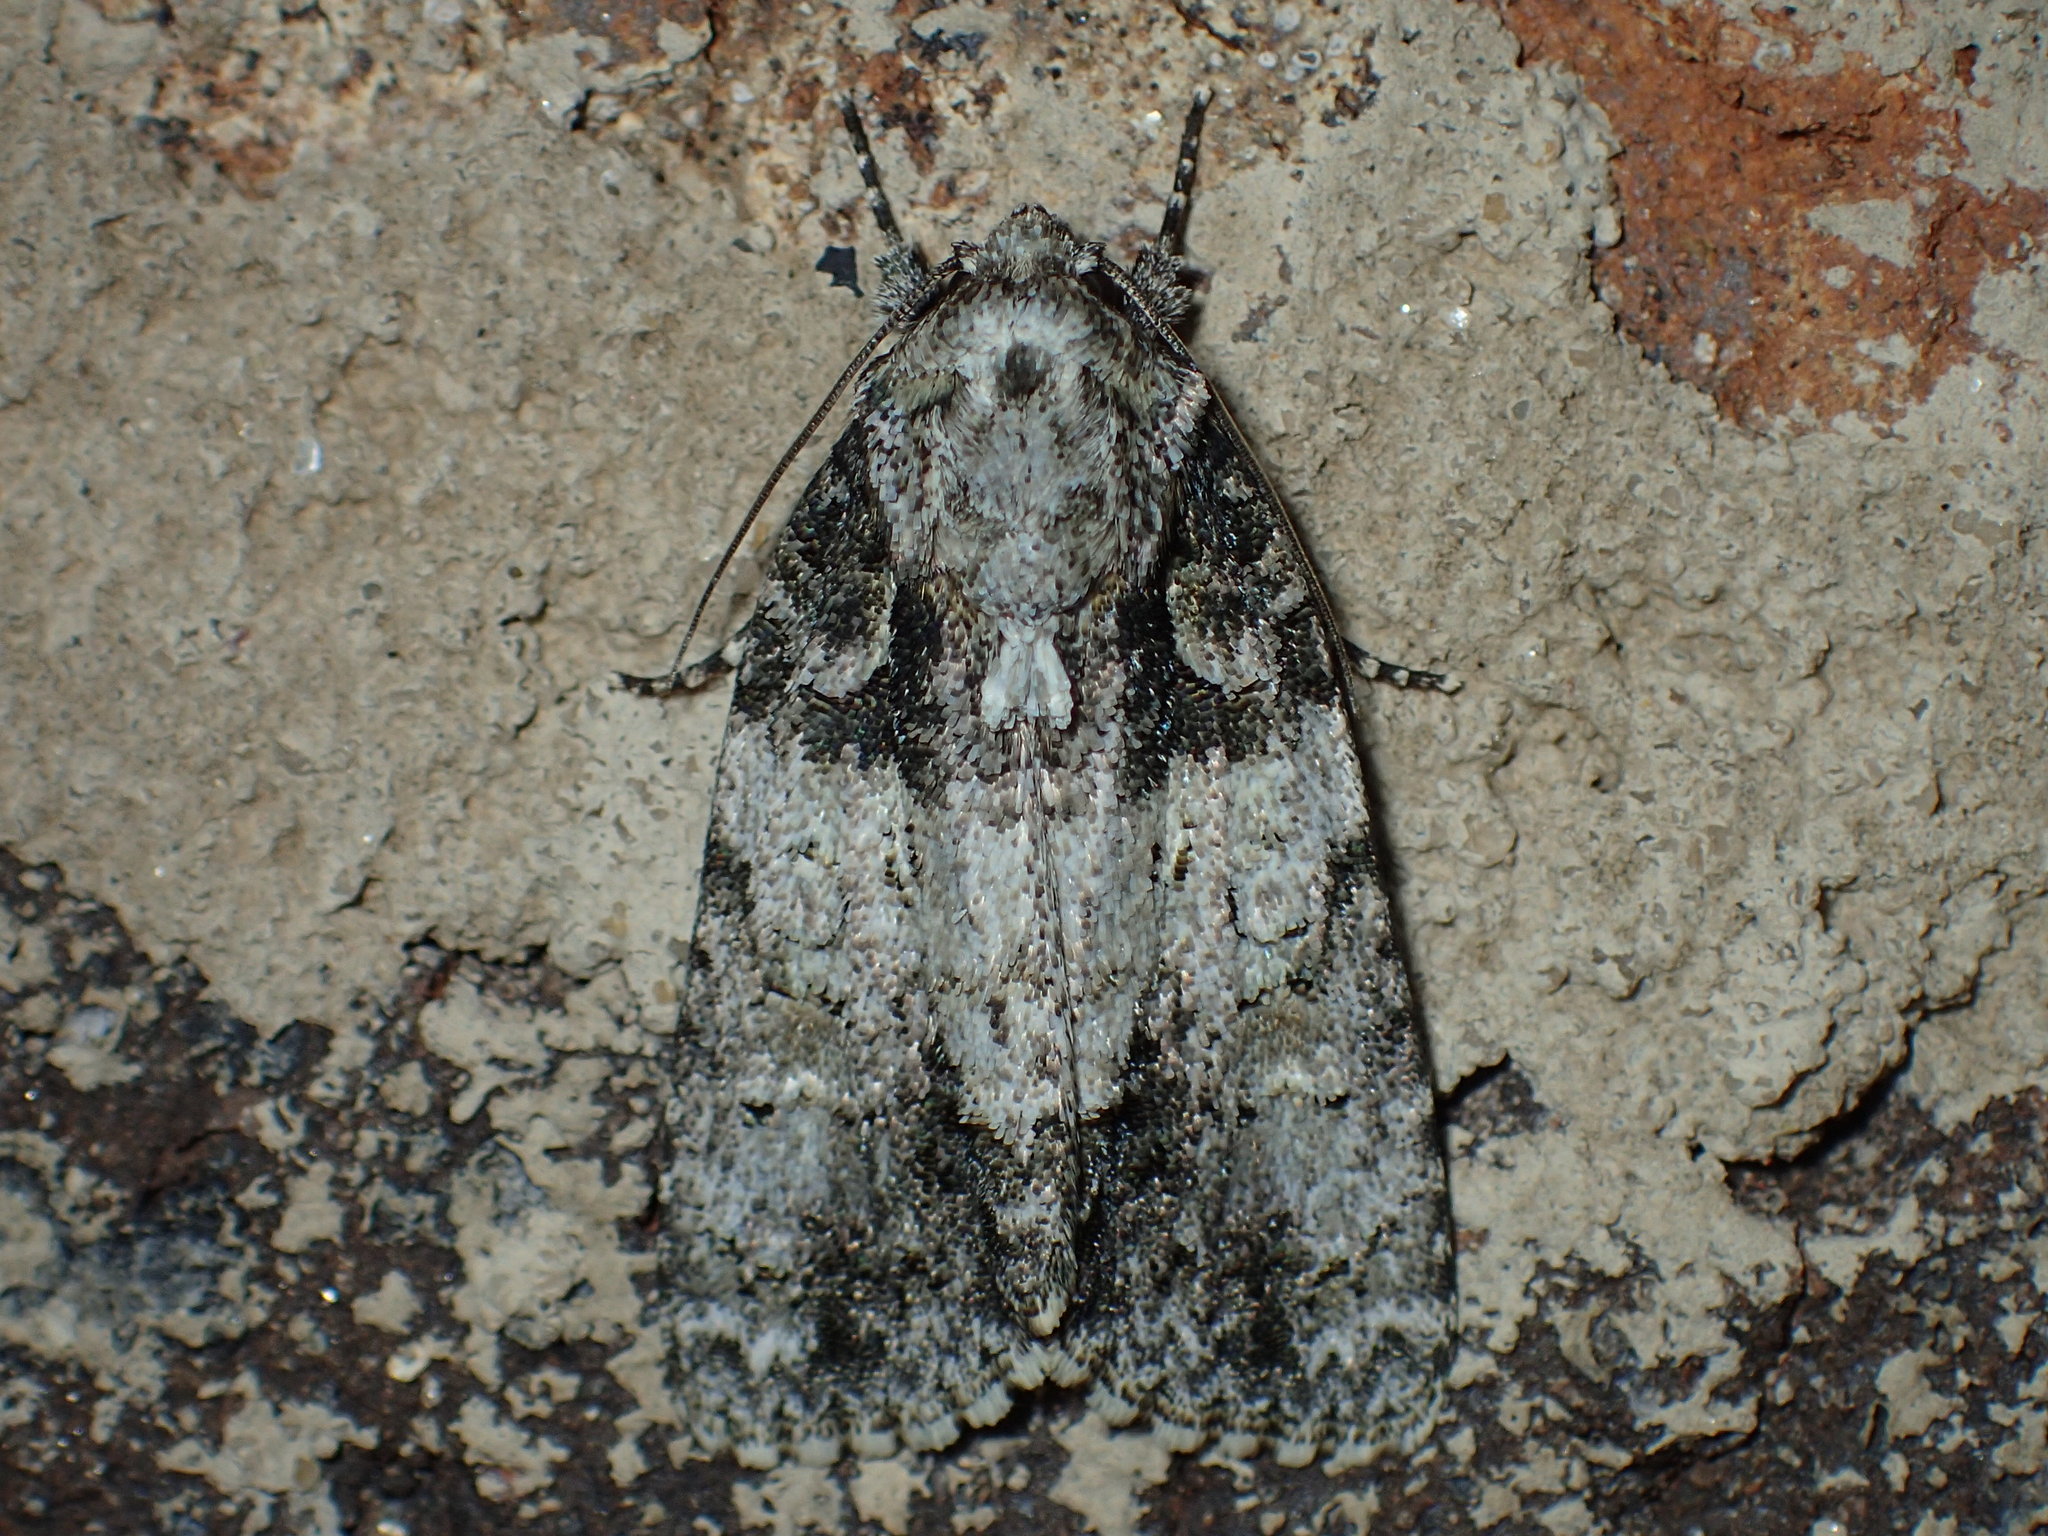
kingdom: Animalia
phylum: Arthropoda
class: Insecta
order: Lepidoptera
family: Noctuidae
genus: Acronicta
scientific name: Acronicta increta
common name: Eclipsed oak dagger
